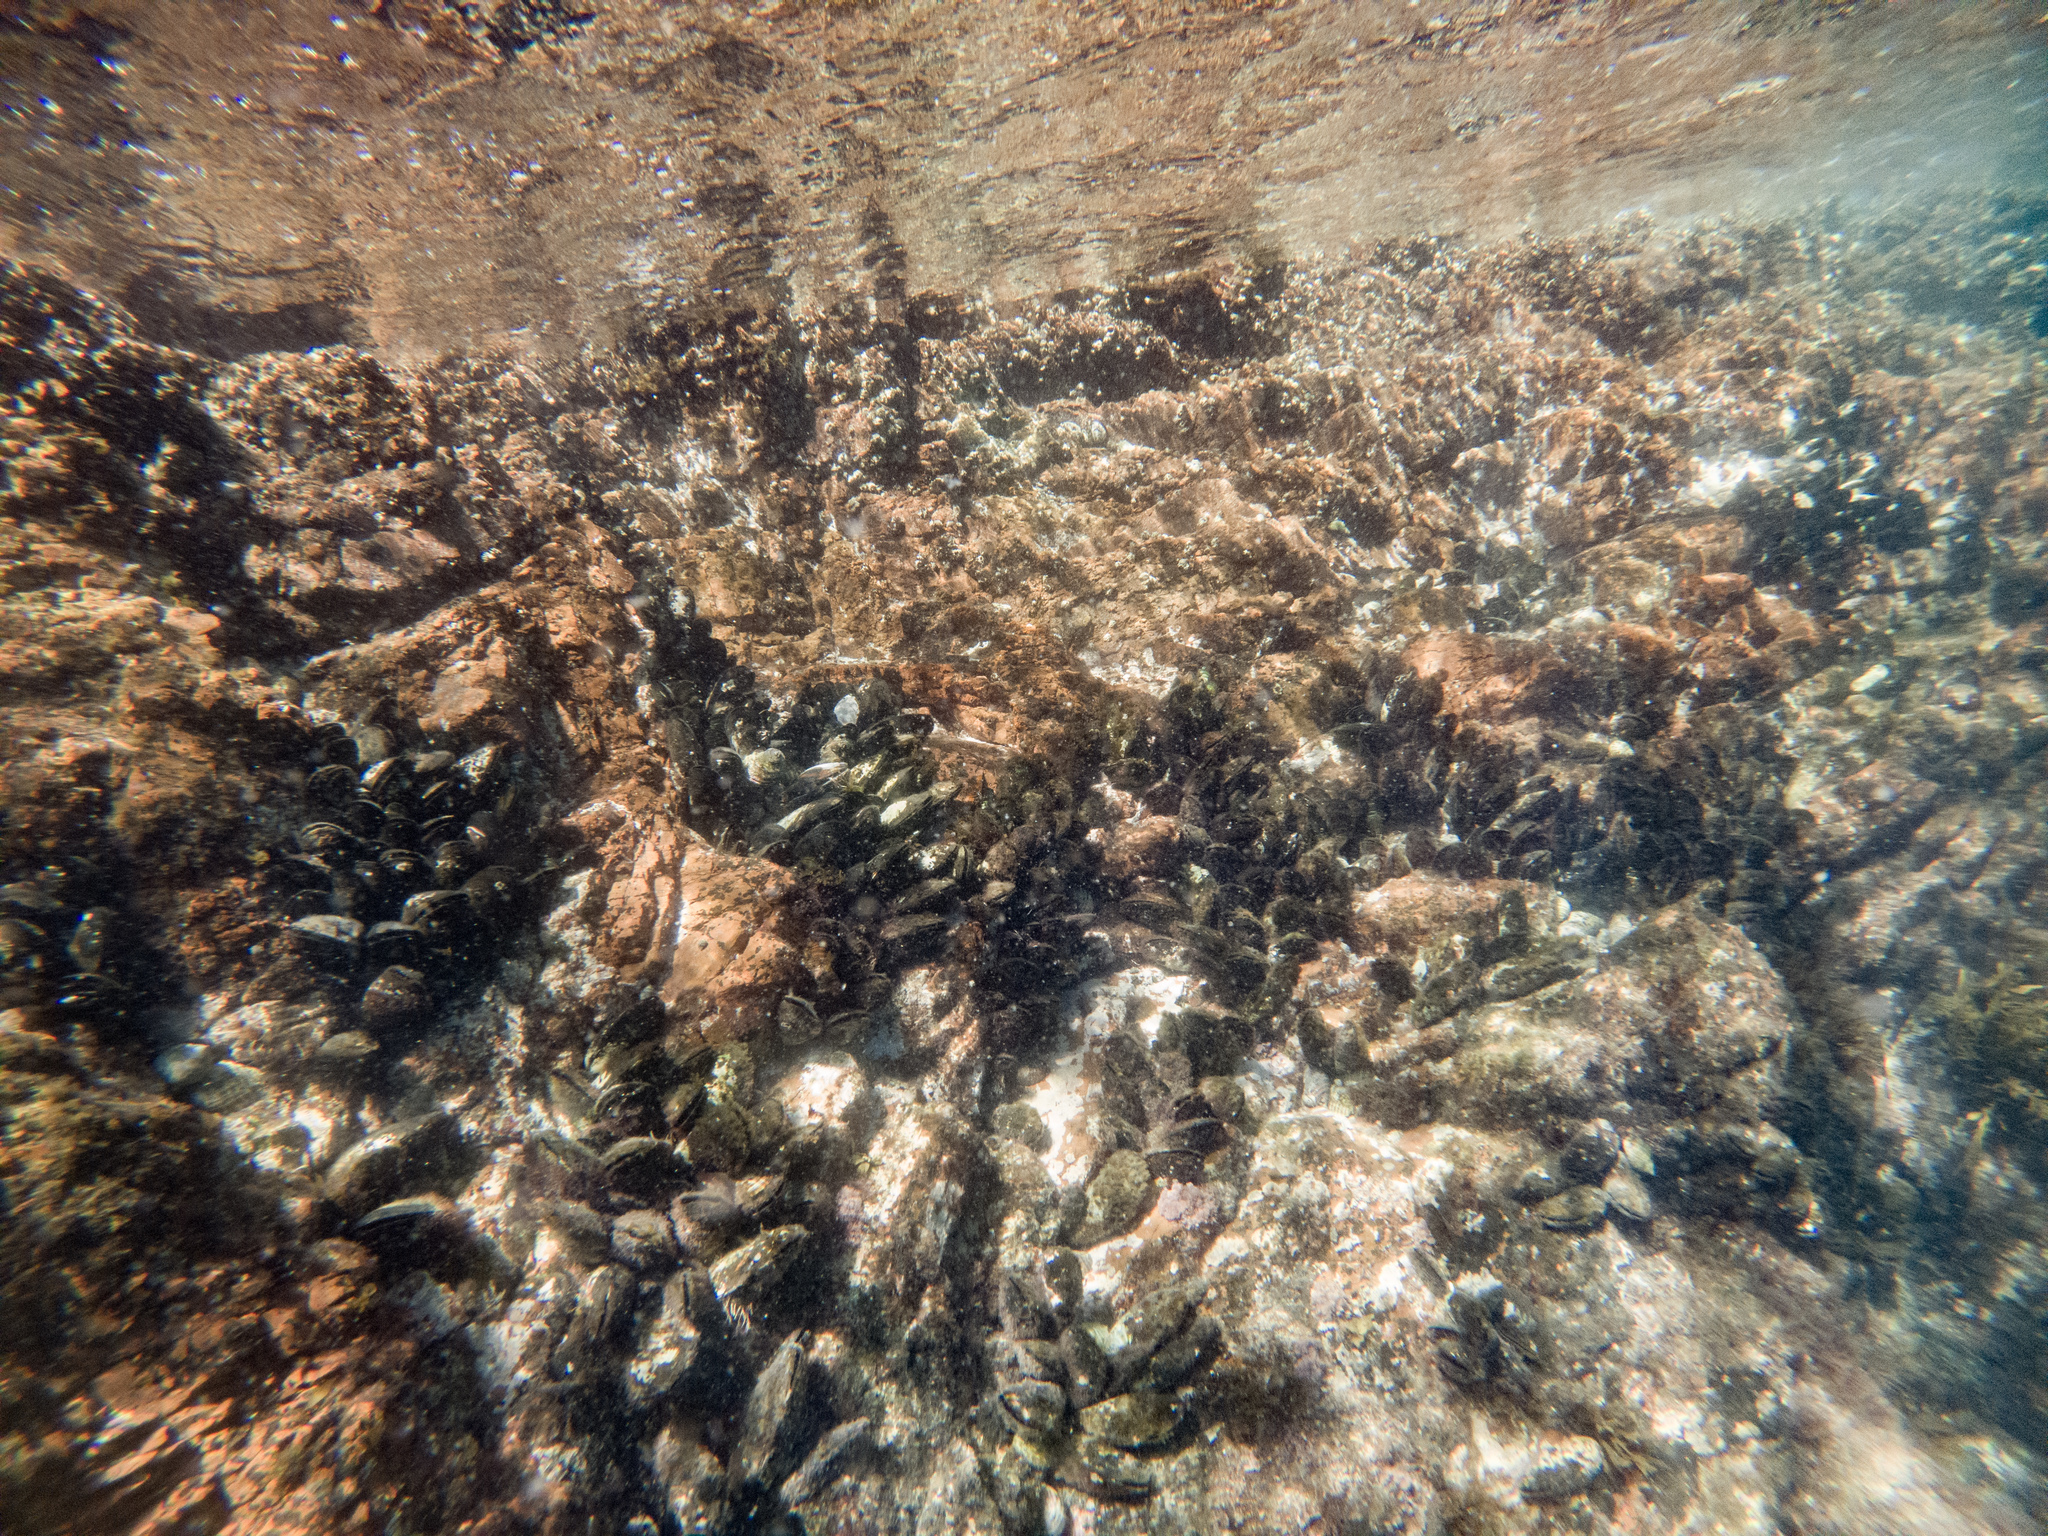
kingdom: Animalia
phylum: Mollusca
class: Bivalvia
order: Mytilida
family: Mytilidae
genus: Perna
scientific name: Perna canaliculus
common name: New zealand greenshelltm
